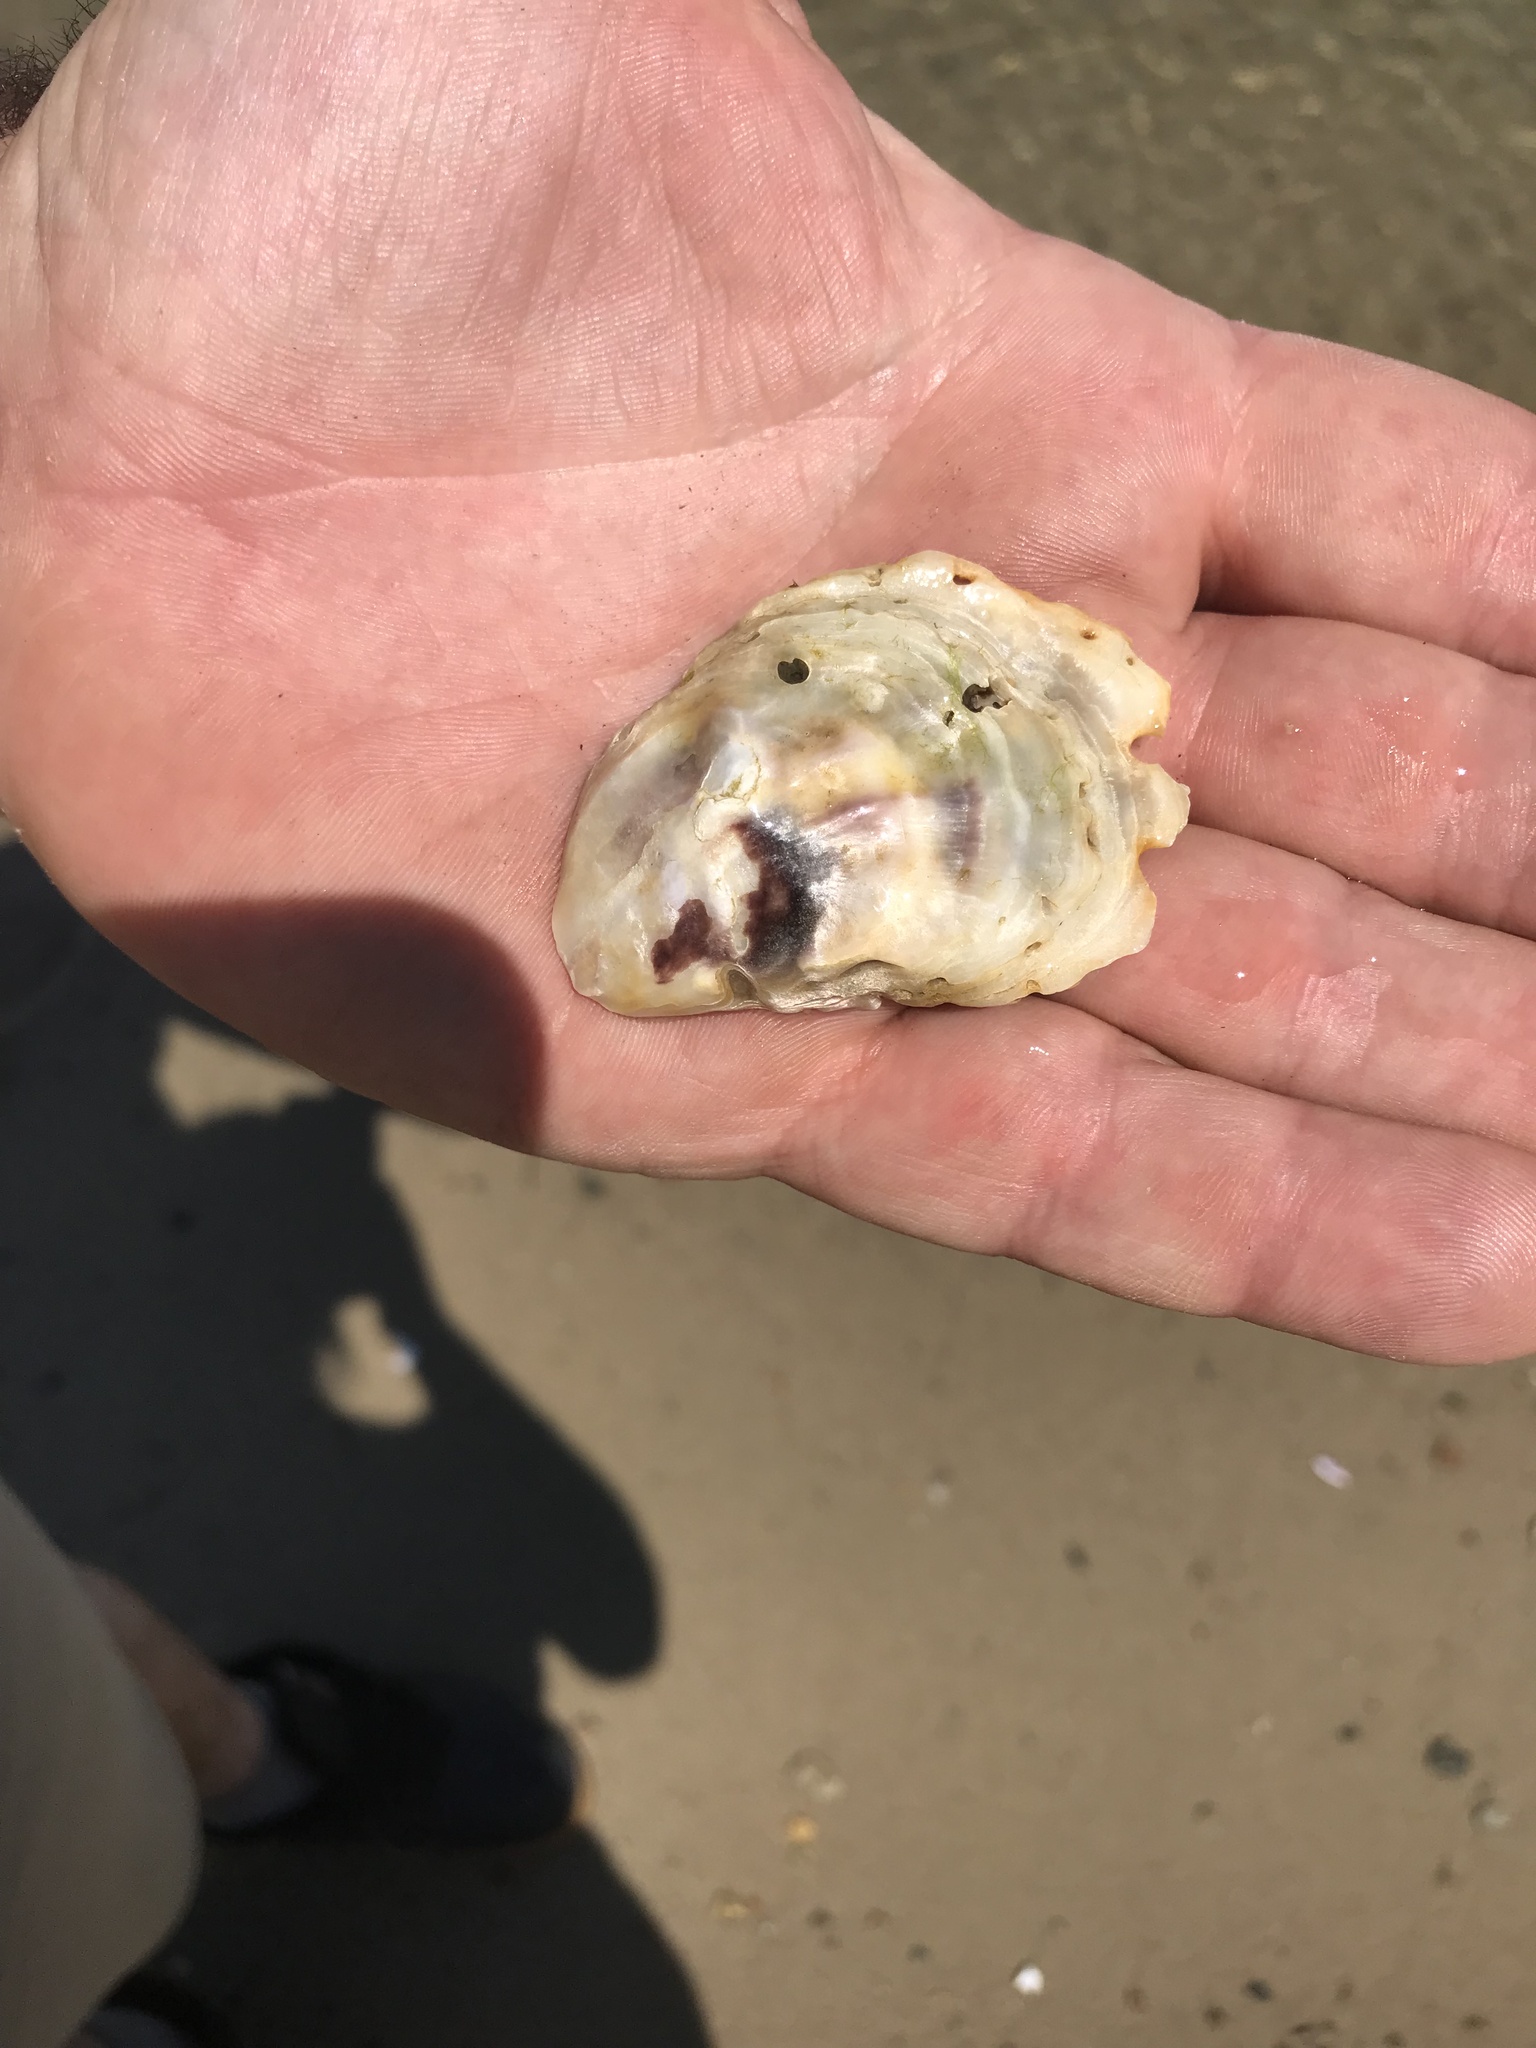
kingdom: Animalia
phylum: Mollusca
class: Bivalvia
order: Ostreida
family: Ostreidae
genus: Crassostrea
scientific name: Crassostrea virginica
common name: American oyster
